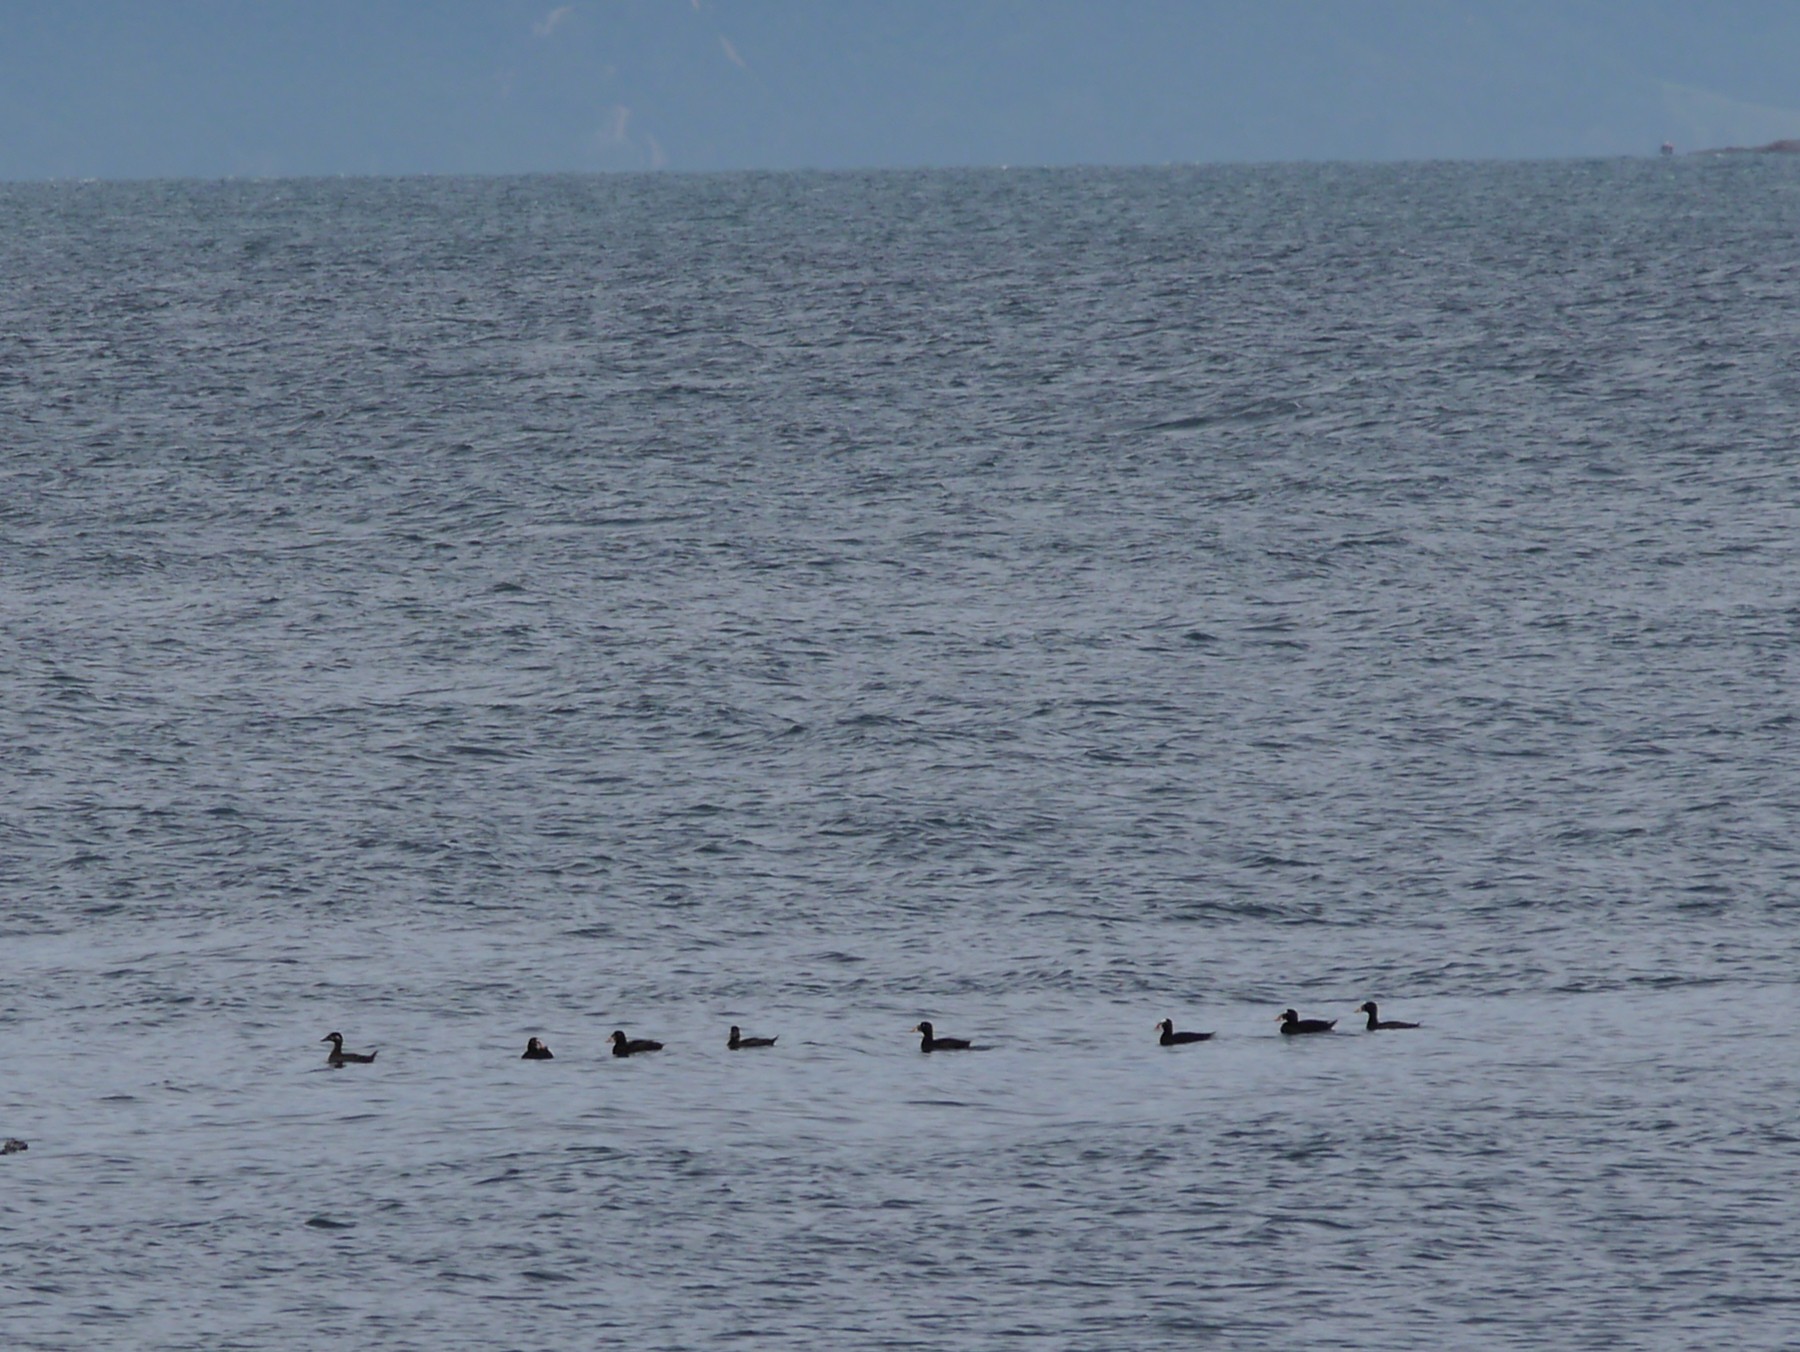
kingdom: Animalia
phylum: Chordata
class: Aves
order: Anseriformes
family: Anatidae
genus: Melanitta
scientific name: Melanitta perspicillata
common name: Surf scoter
